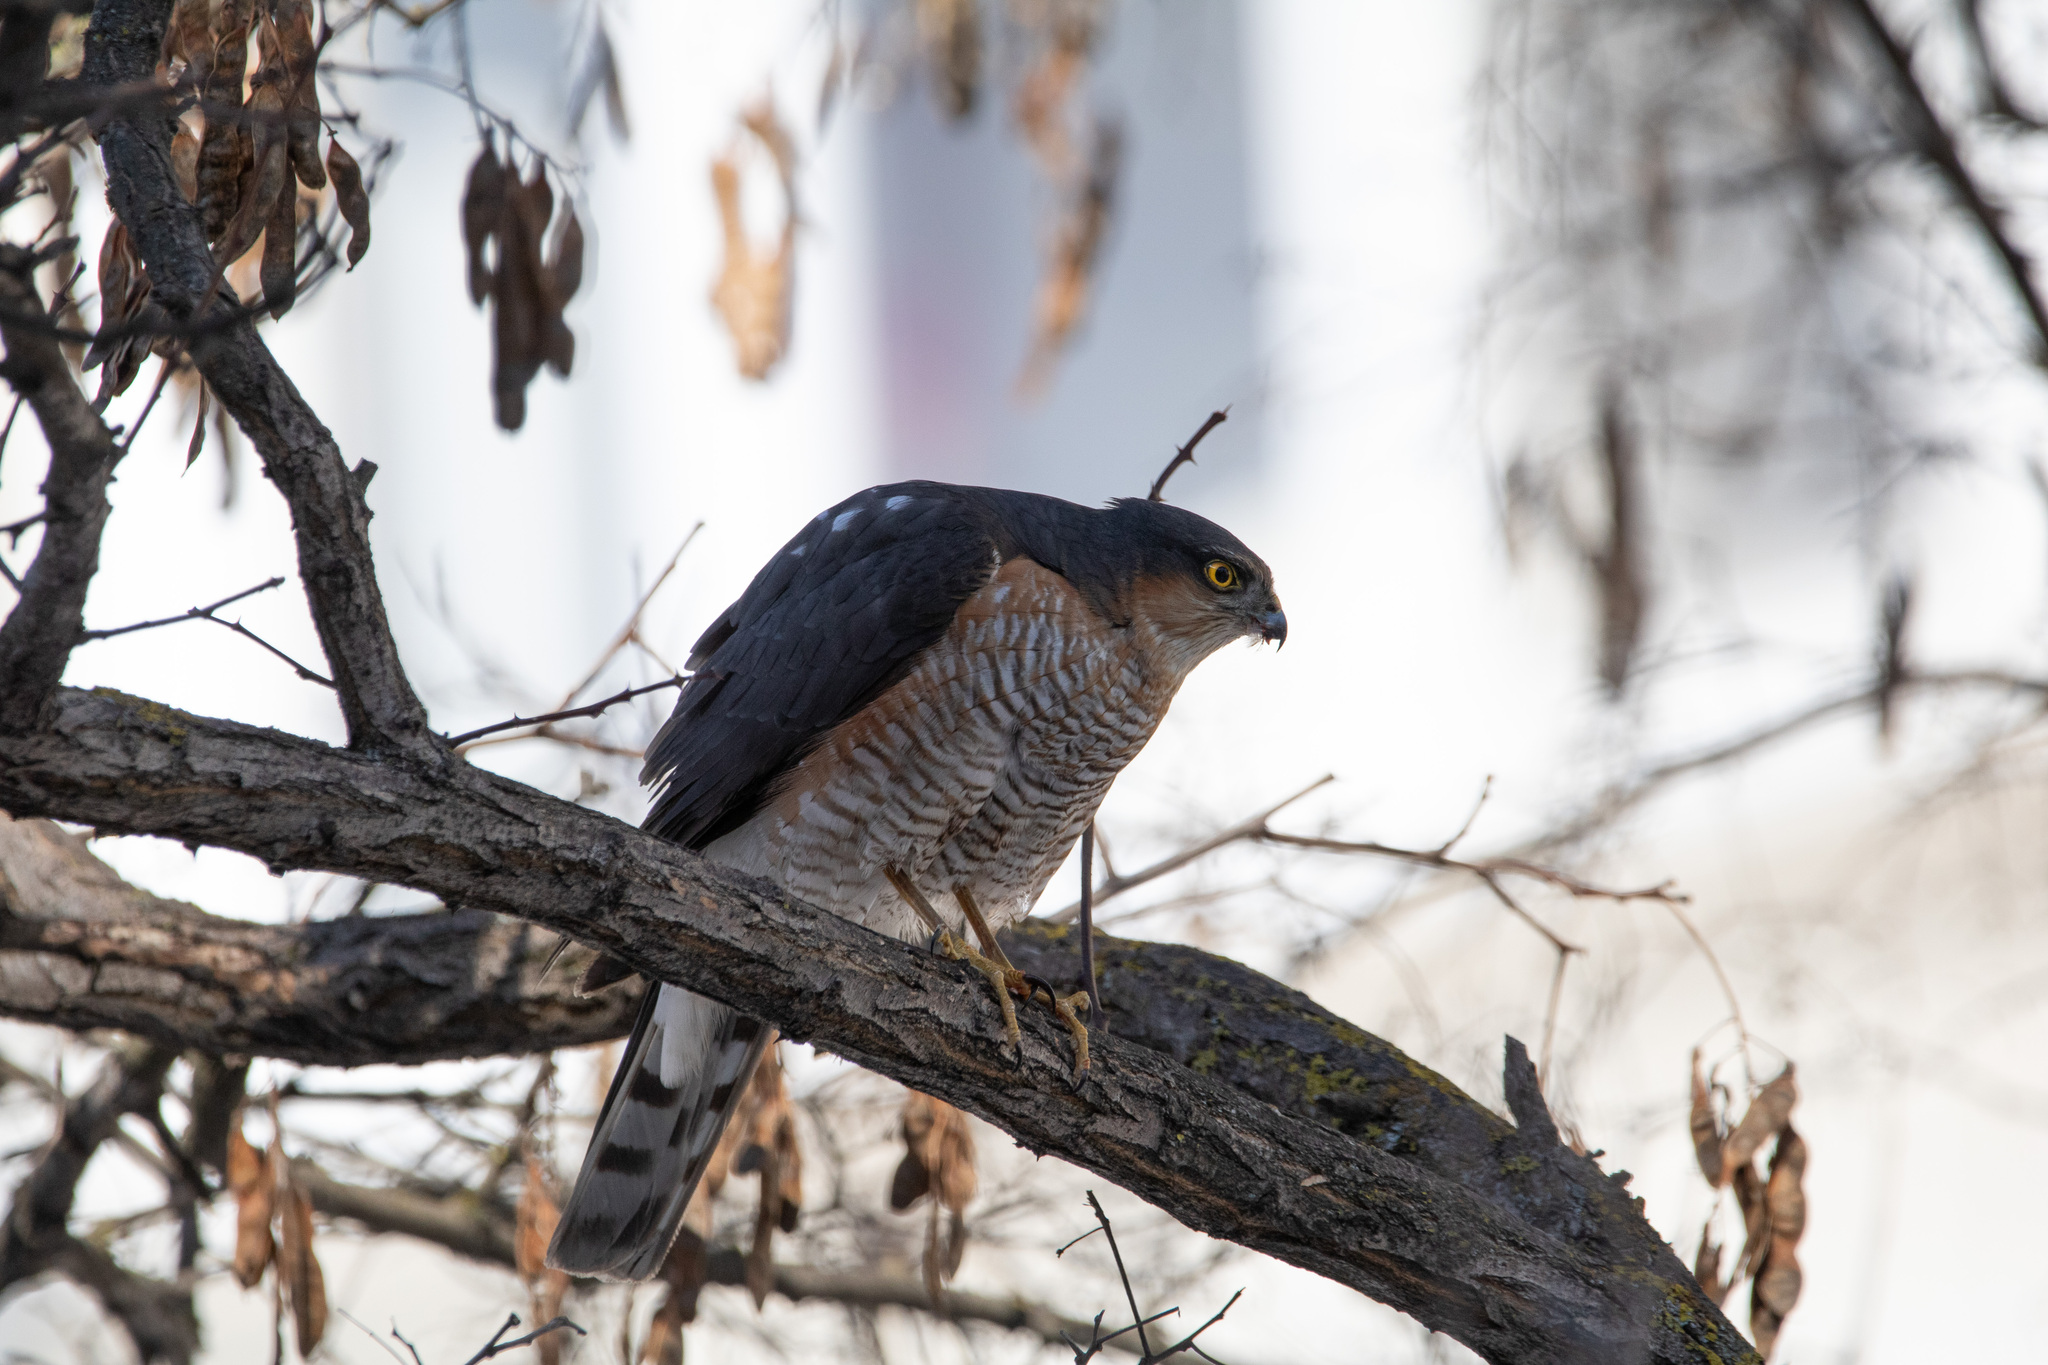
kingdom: Animalia
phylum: Chordata
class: Aves
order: Accipitriformes
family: Accipitridae
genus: Accipiter
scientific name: Accipiter nisus
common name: Eurasian sparrowhawk
